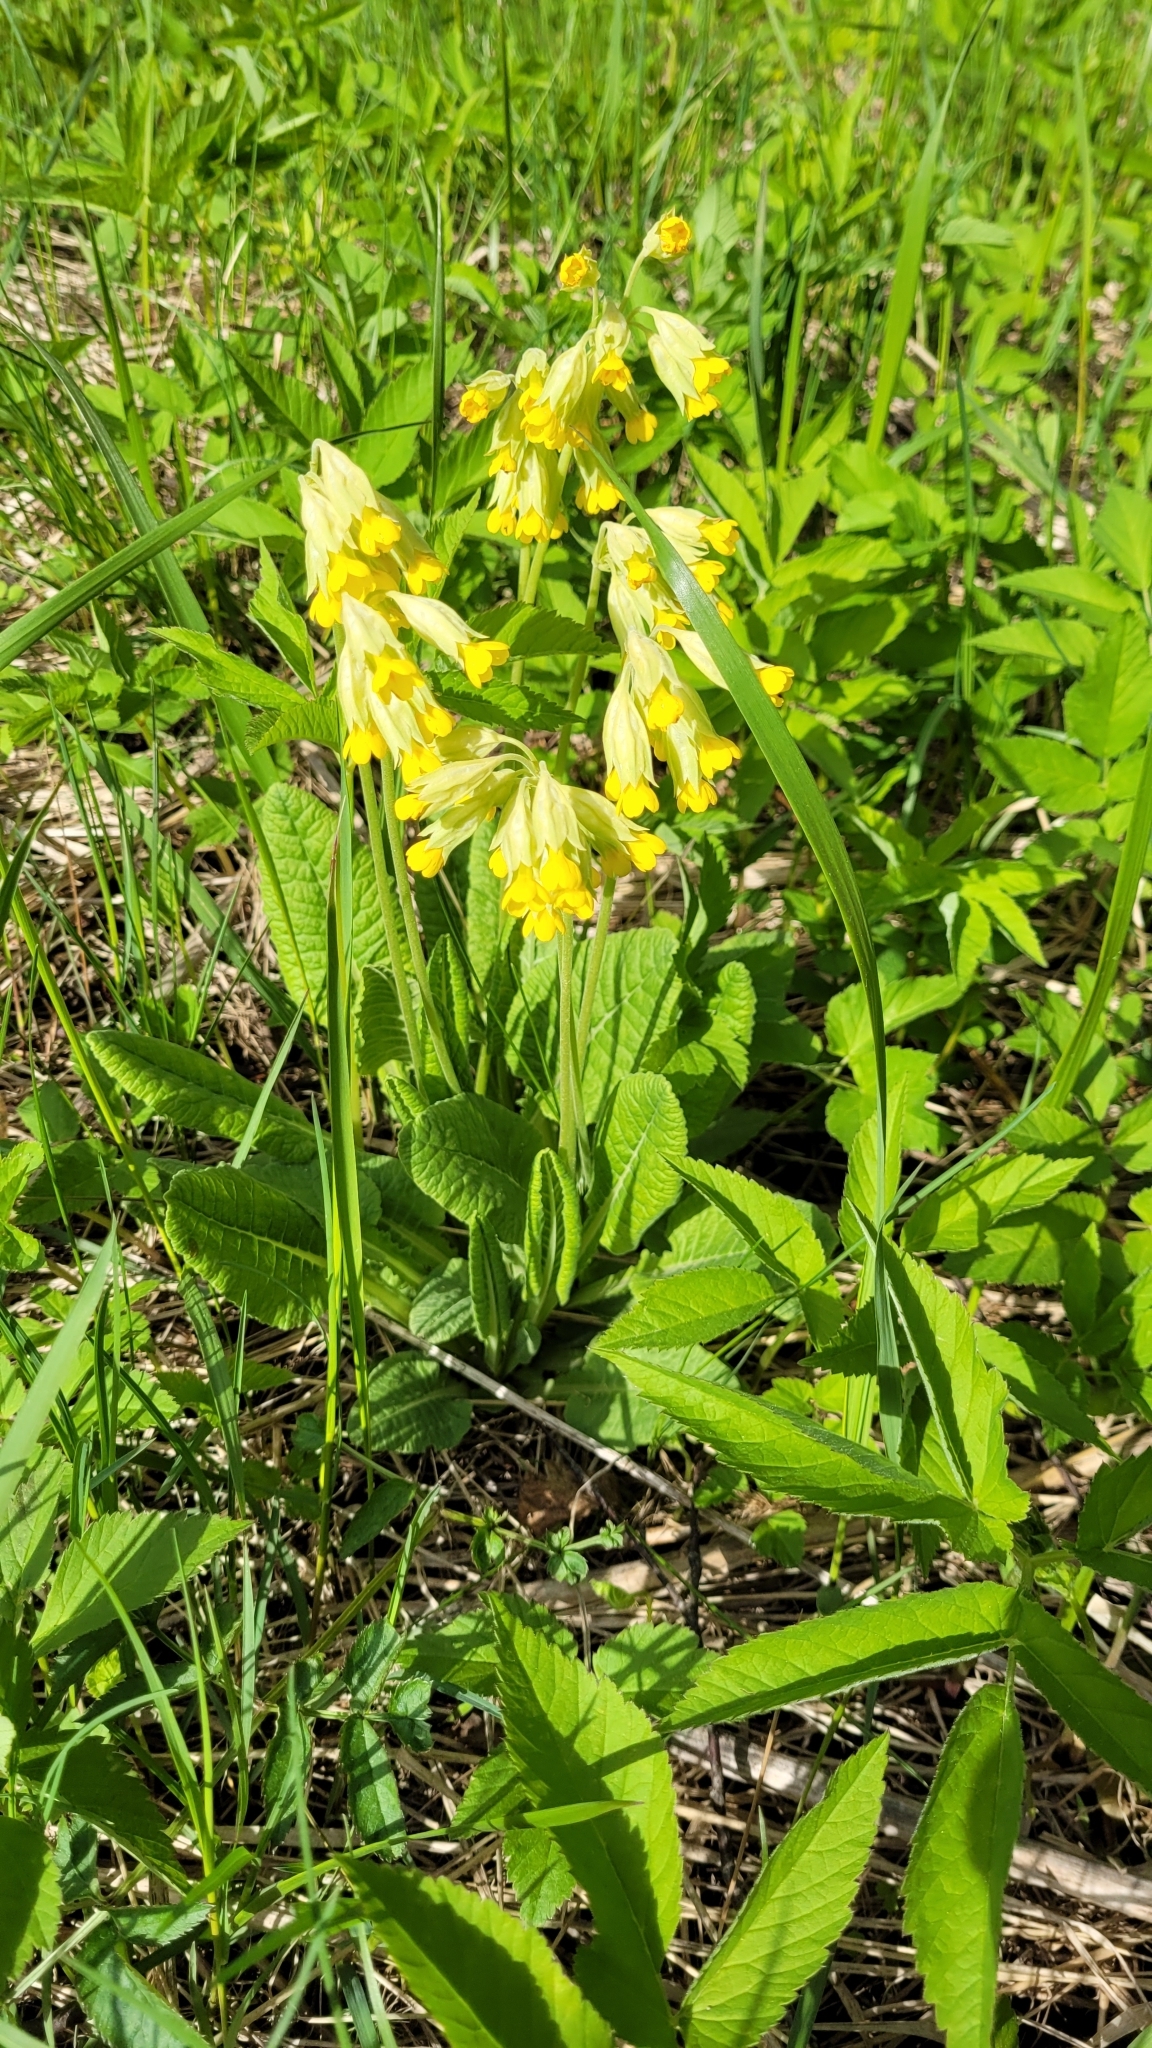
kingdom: Plantae
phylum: Tracheophyta
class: Magnoliopsida
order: Ericales
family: Primulaceae
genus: Primula
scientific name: Primula veris
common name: Cowslip
